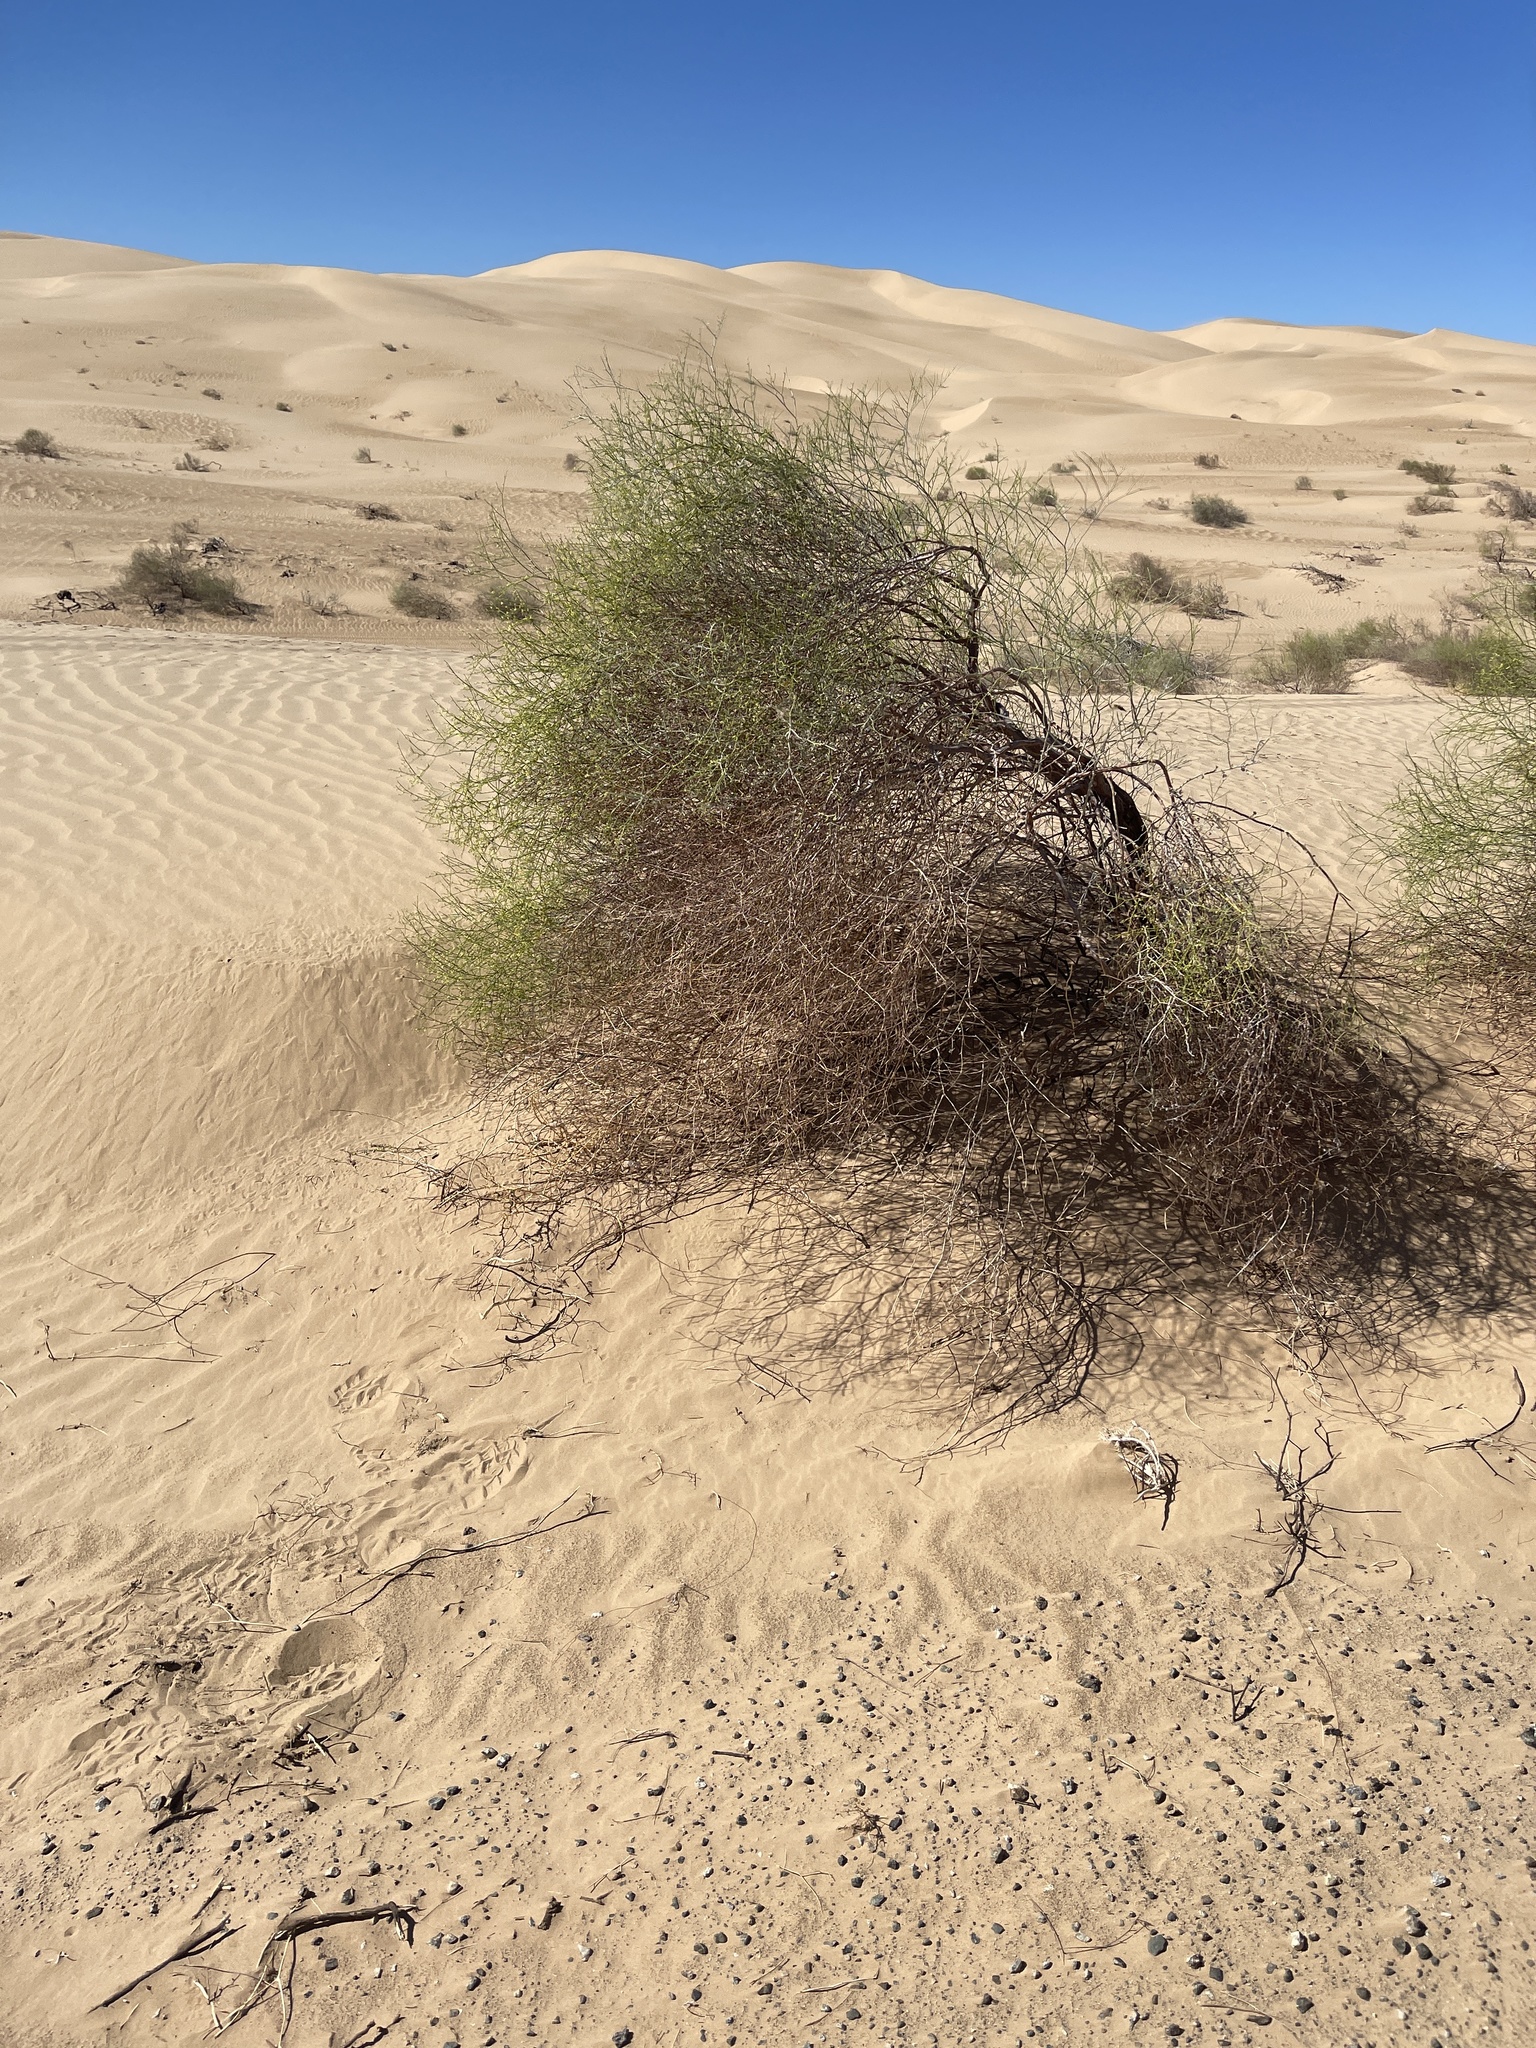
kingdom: Plantae
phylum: Tracheophyta
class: Magnoliopsida
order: Caryophyllales
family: Polygonaceae
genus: Eriogonum
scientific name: Eriogonum deserticola
